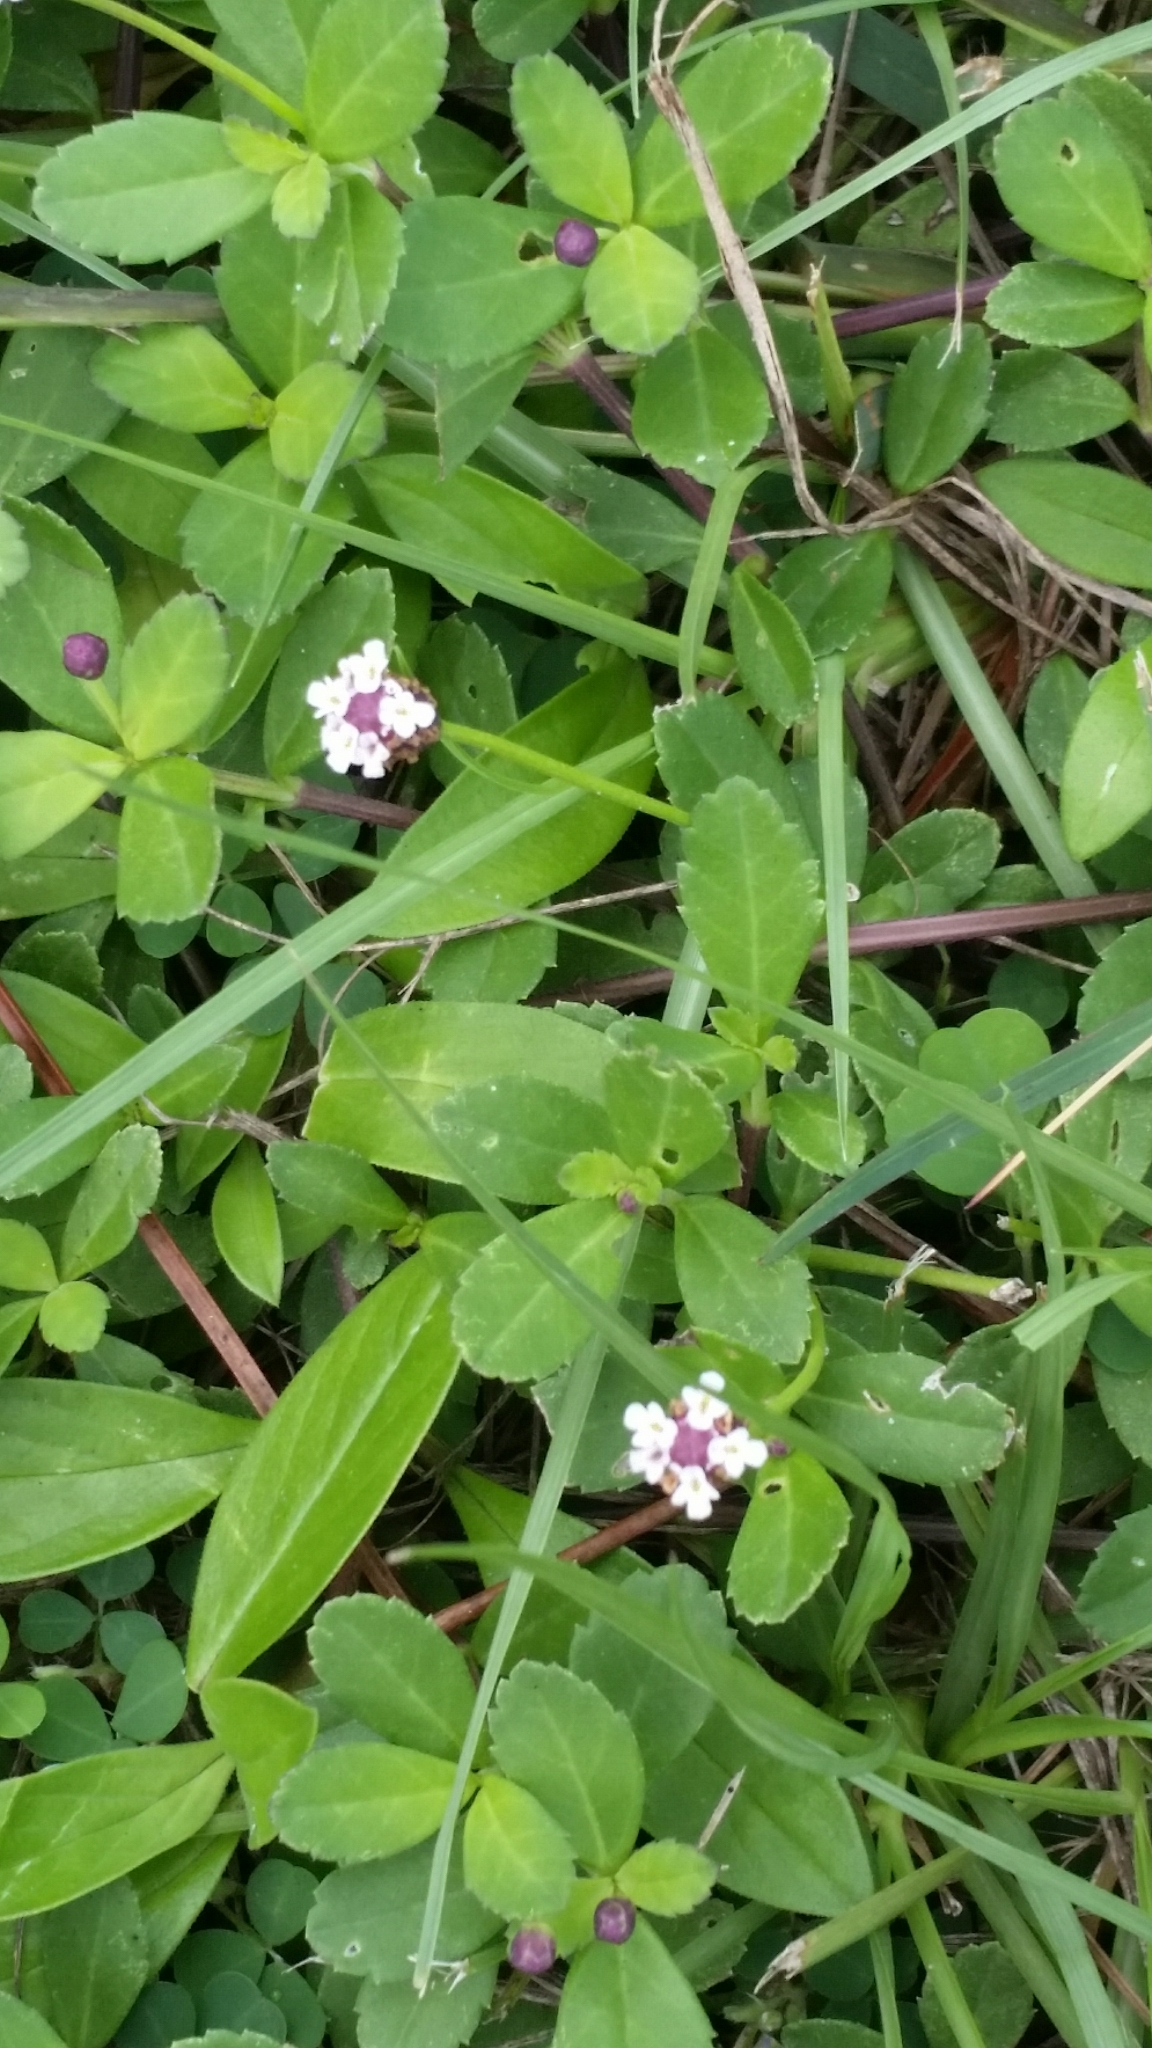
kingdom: Plantae
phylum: Tracheophyta
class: Magnoliopsida
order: Lamiales
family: Verbenaceae
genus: Phyla
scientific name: Phyla nodiflora
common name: Frogfruit
